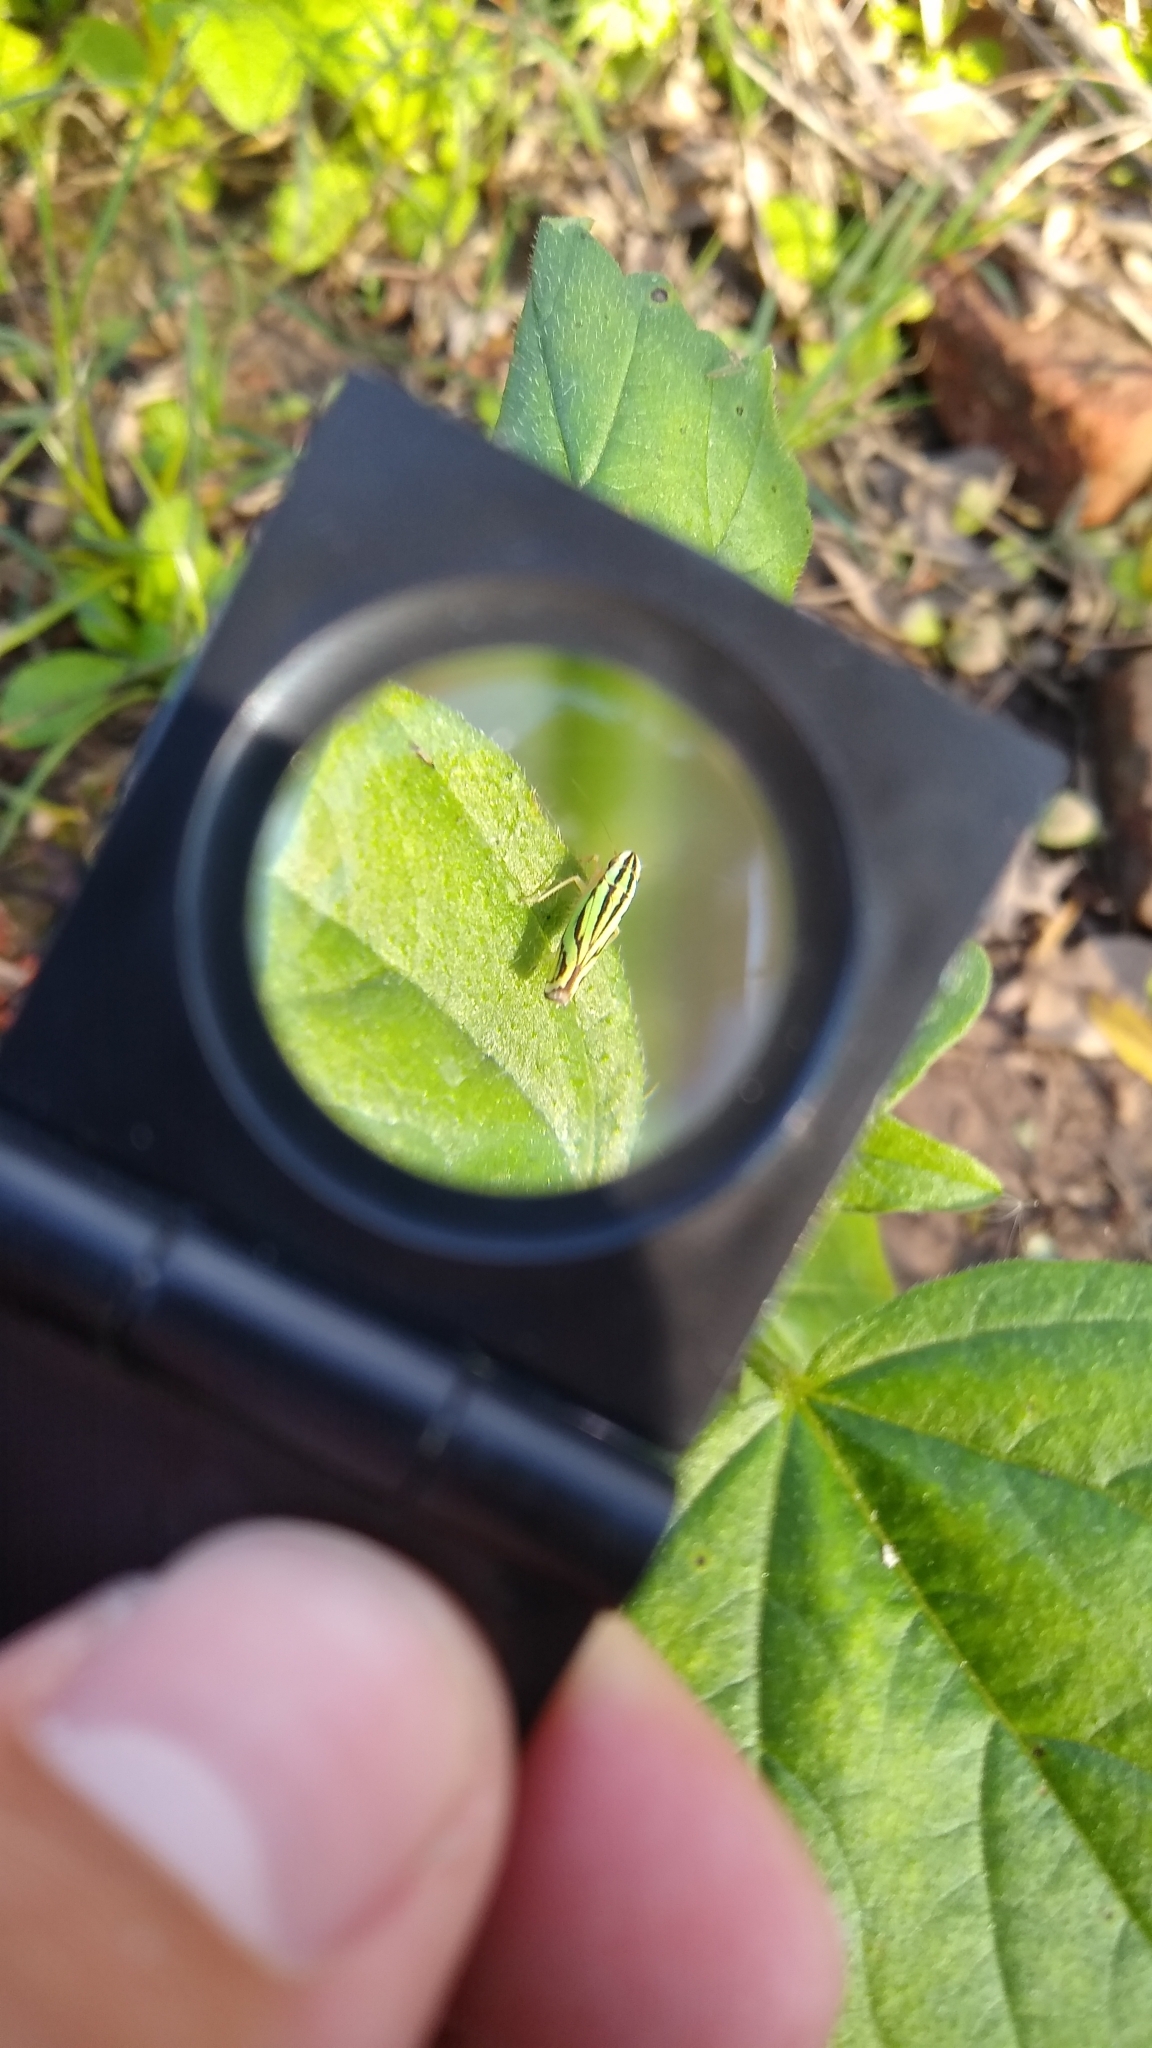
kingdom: Animalia
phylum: Arthropoda
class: Insecta
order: Hemiptera
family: Cicadellidae
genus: Sibovia
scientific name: Sibovia sagata
